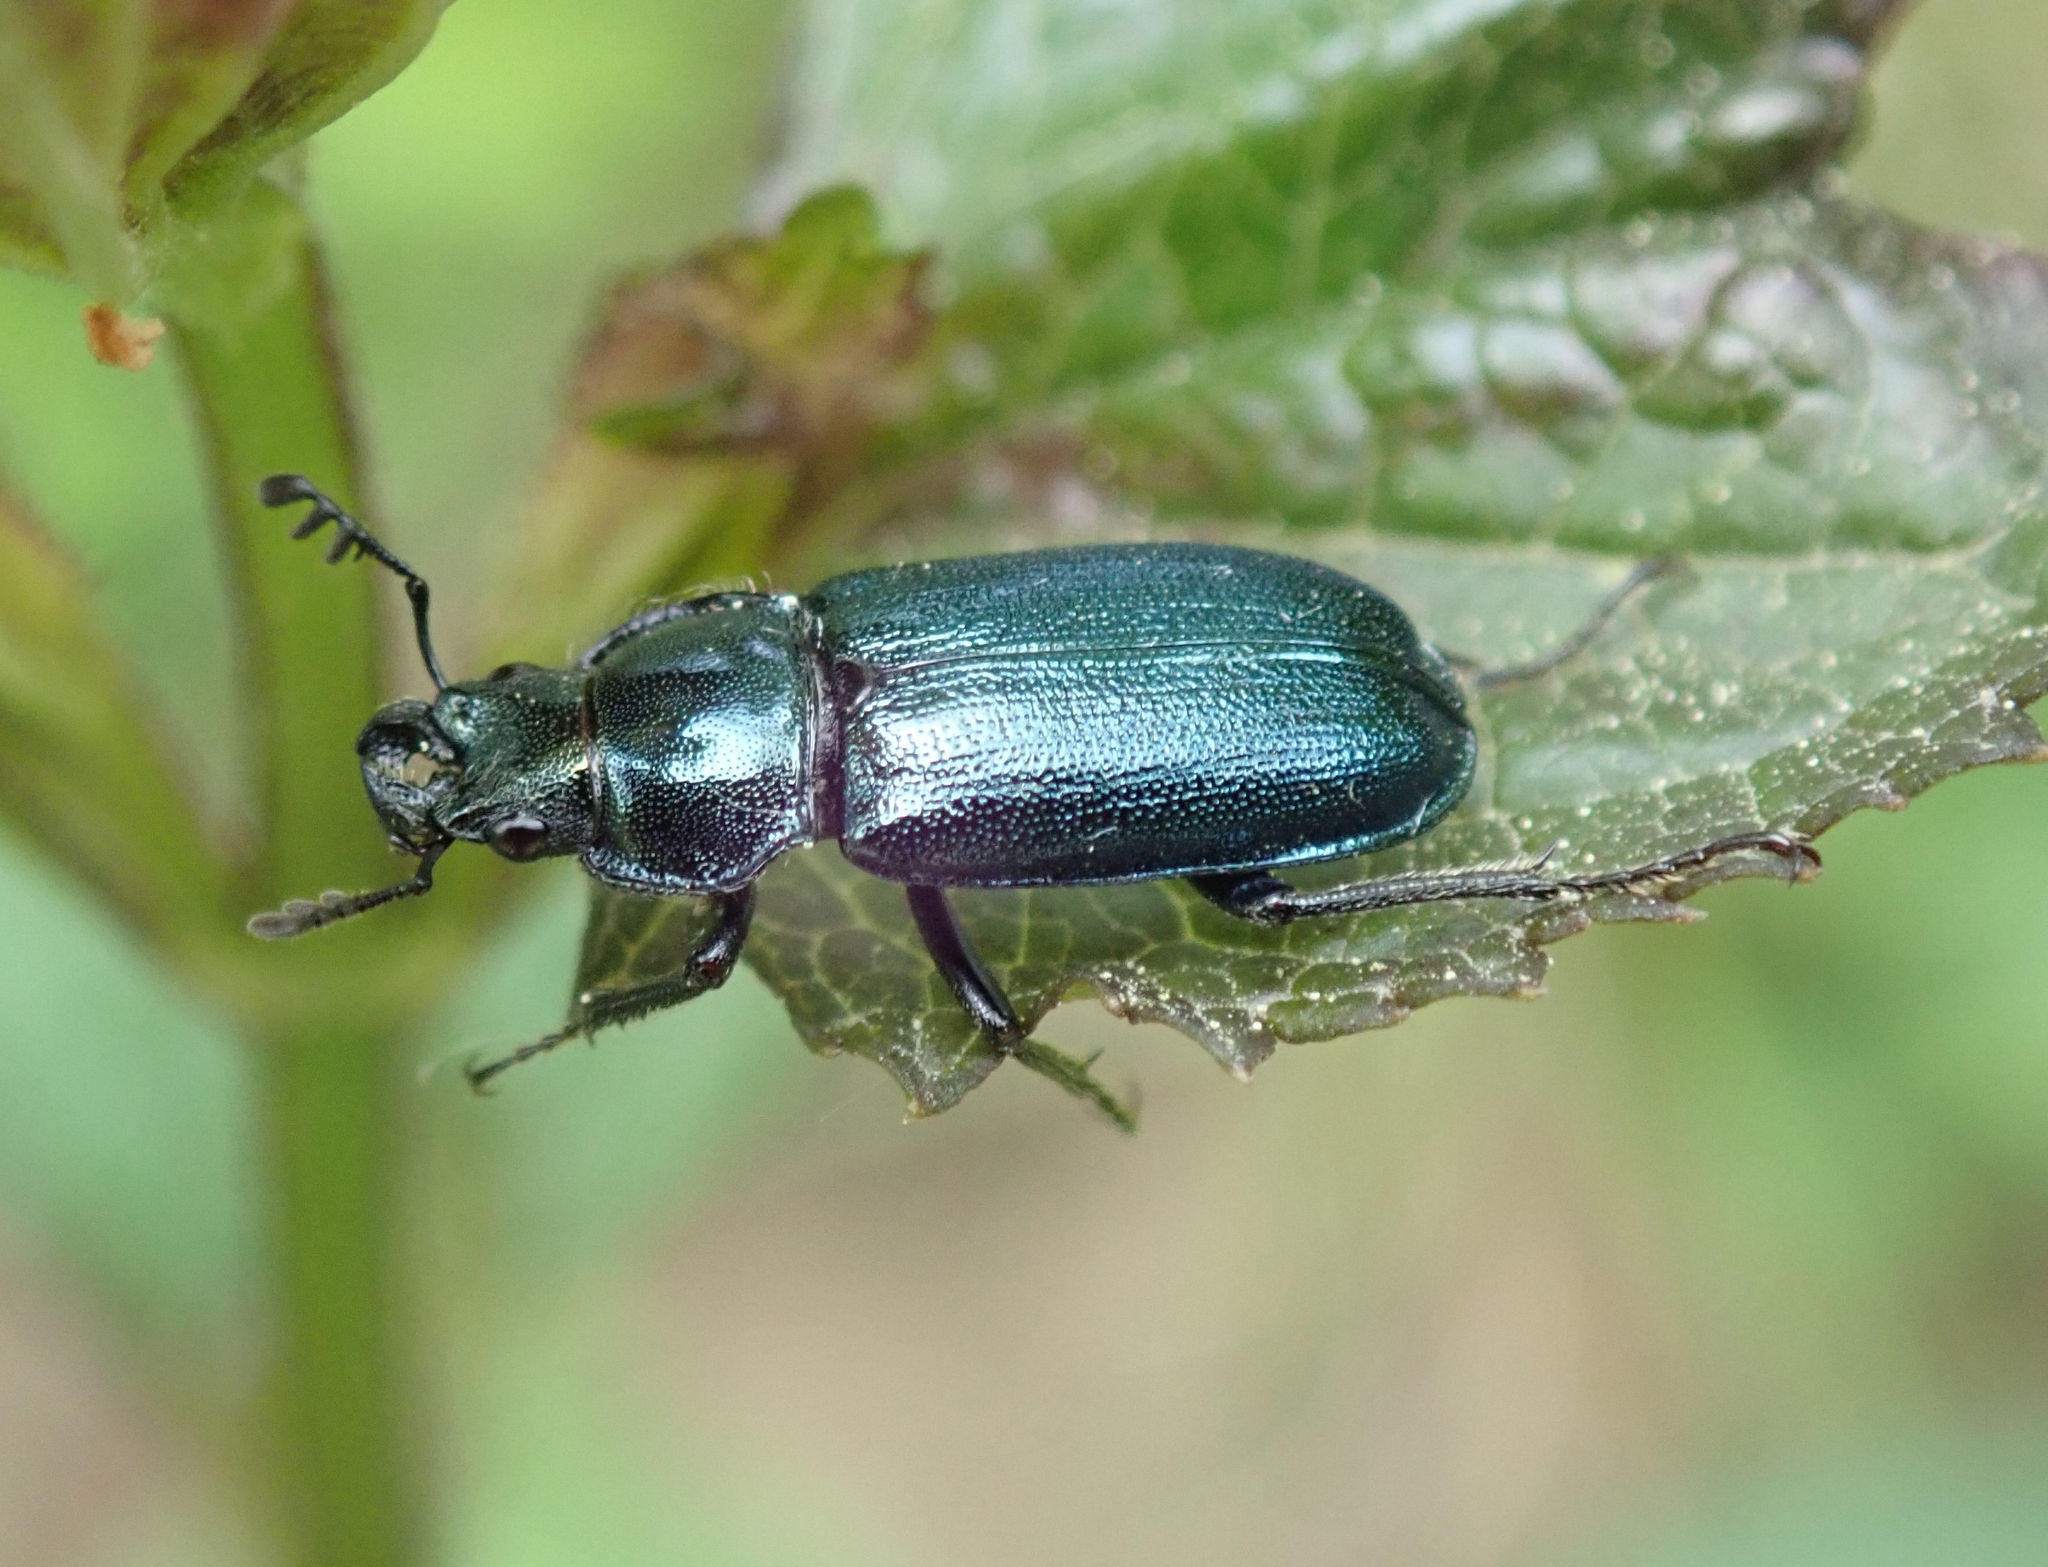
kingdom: Animalia
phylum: Arthropoda
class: Insecta
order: Coleoptera
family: Lucanidae
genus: Platycerus
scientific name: Platycerus caraboides
